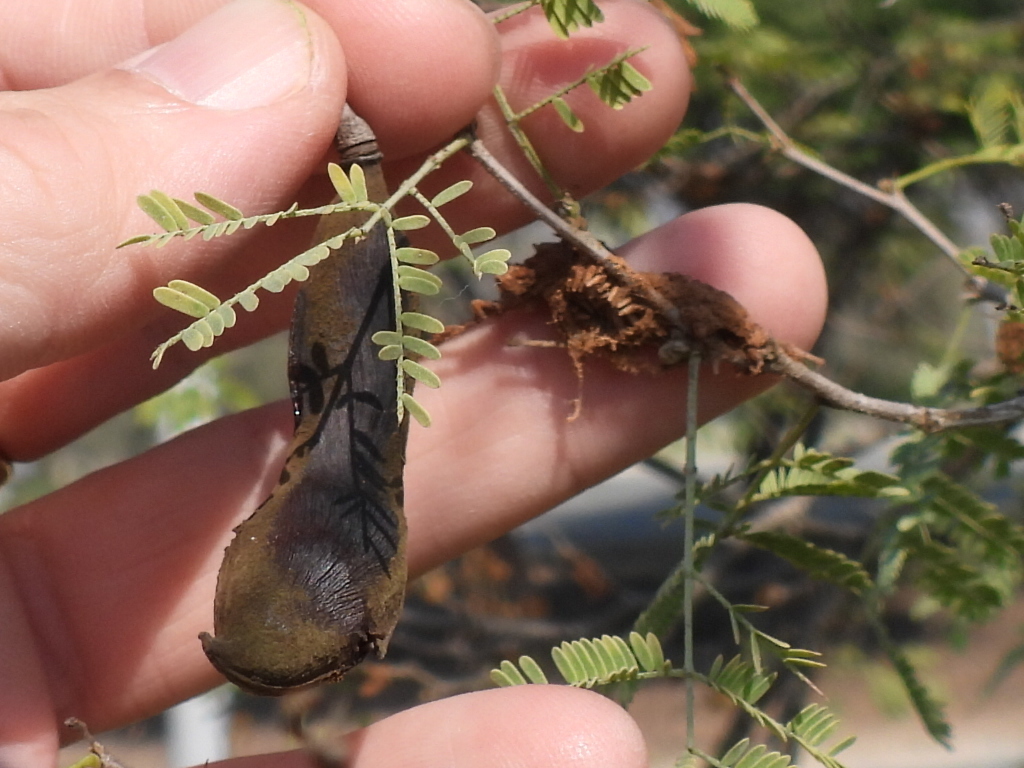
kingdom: Plantae
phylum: Tracheophyta
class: Magnoliopsida
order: Fabales
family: Fabaceae
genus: Vachellia
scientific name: Vachellia farnesiana
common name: Sweet acacia
